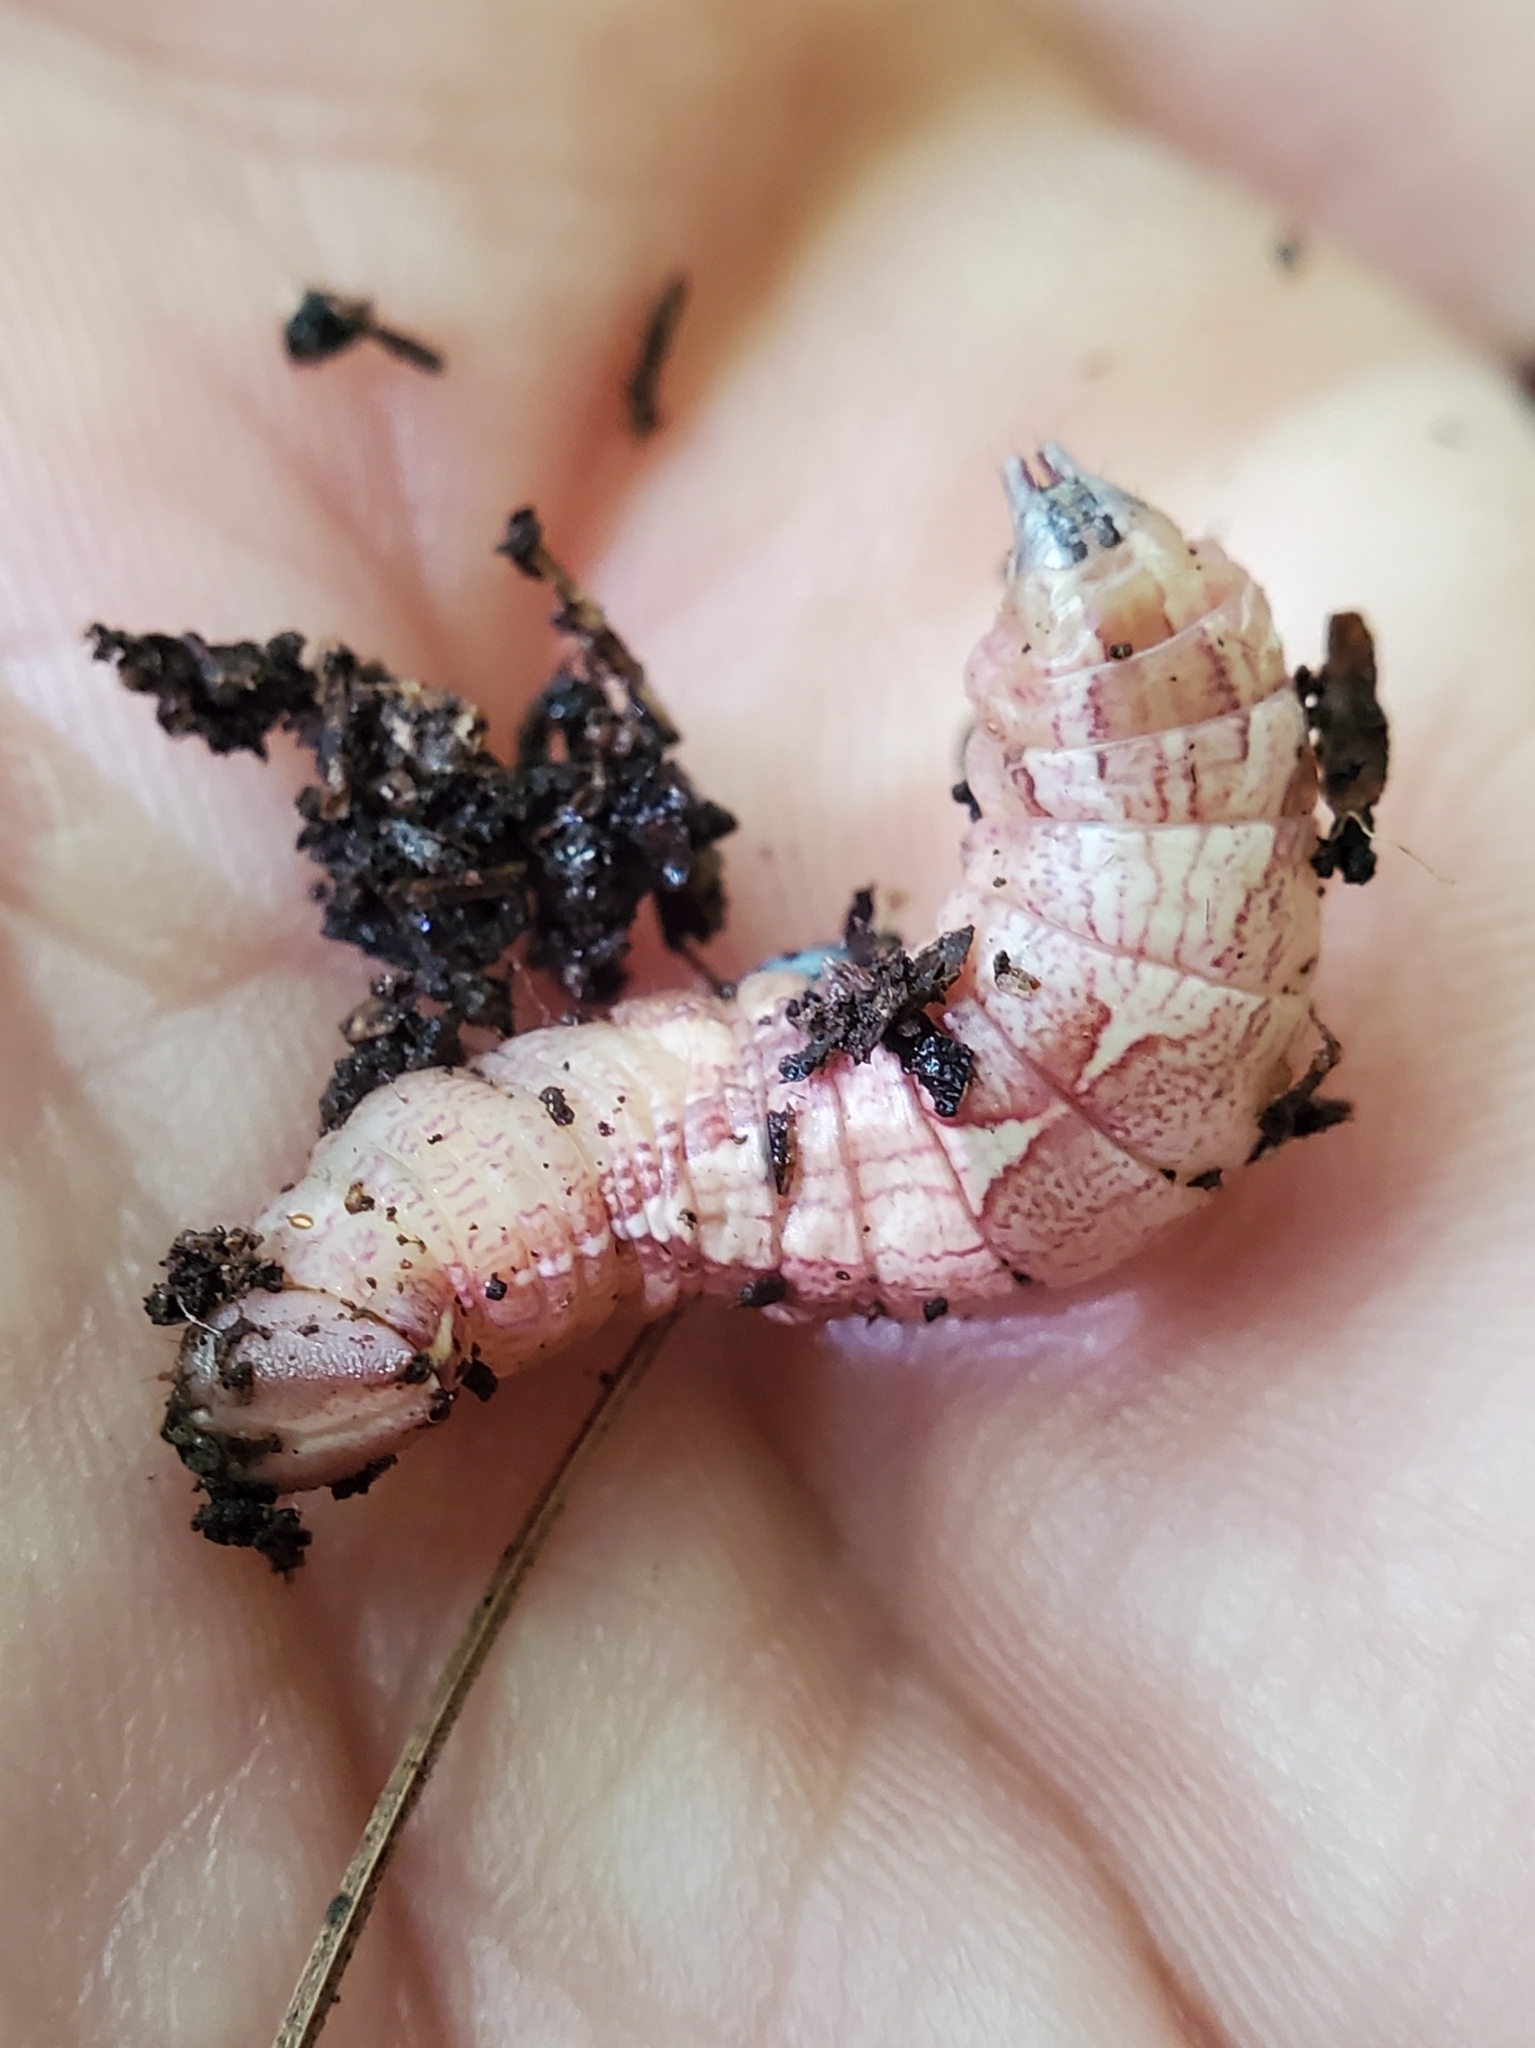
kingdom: Animalia
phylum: Arthropoda
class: Insecta
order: Lepidoptera
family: Notodontidae
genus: Disphragis
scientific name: Disphragis Cecrita biundata
